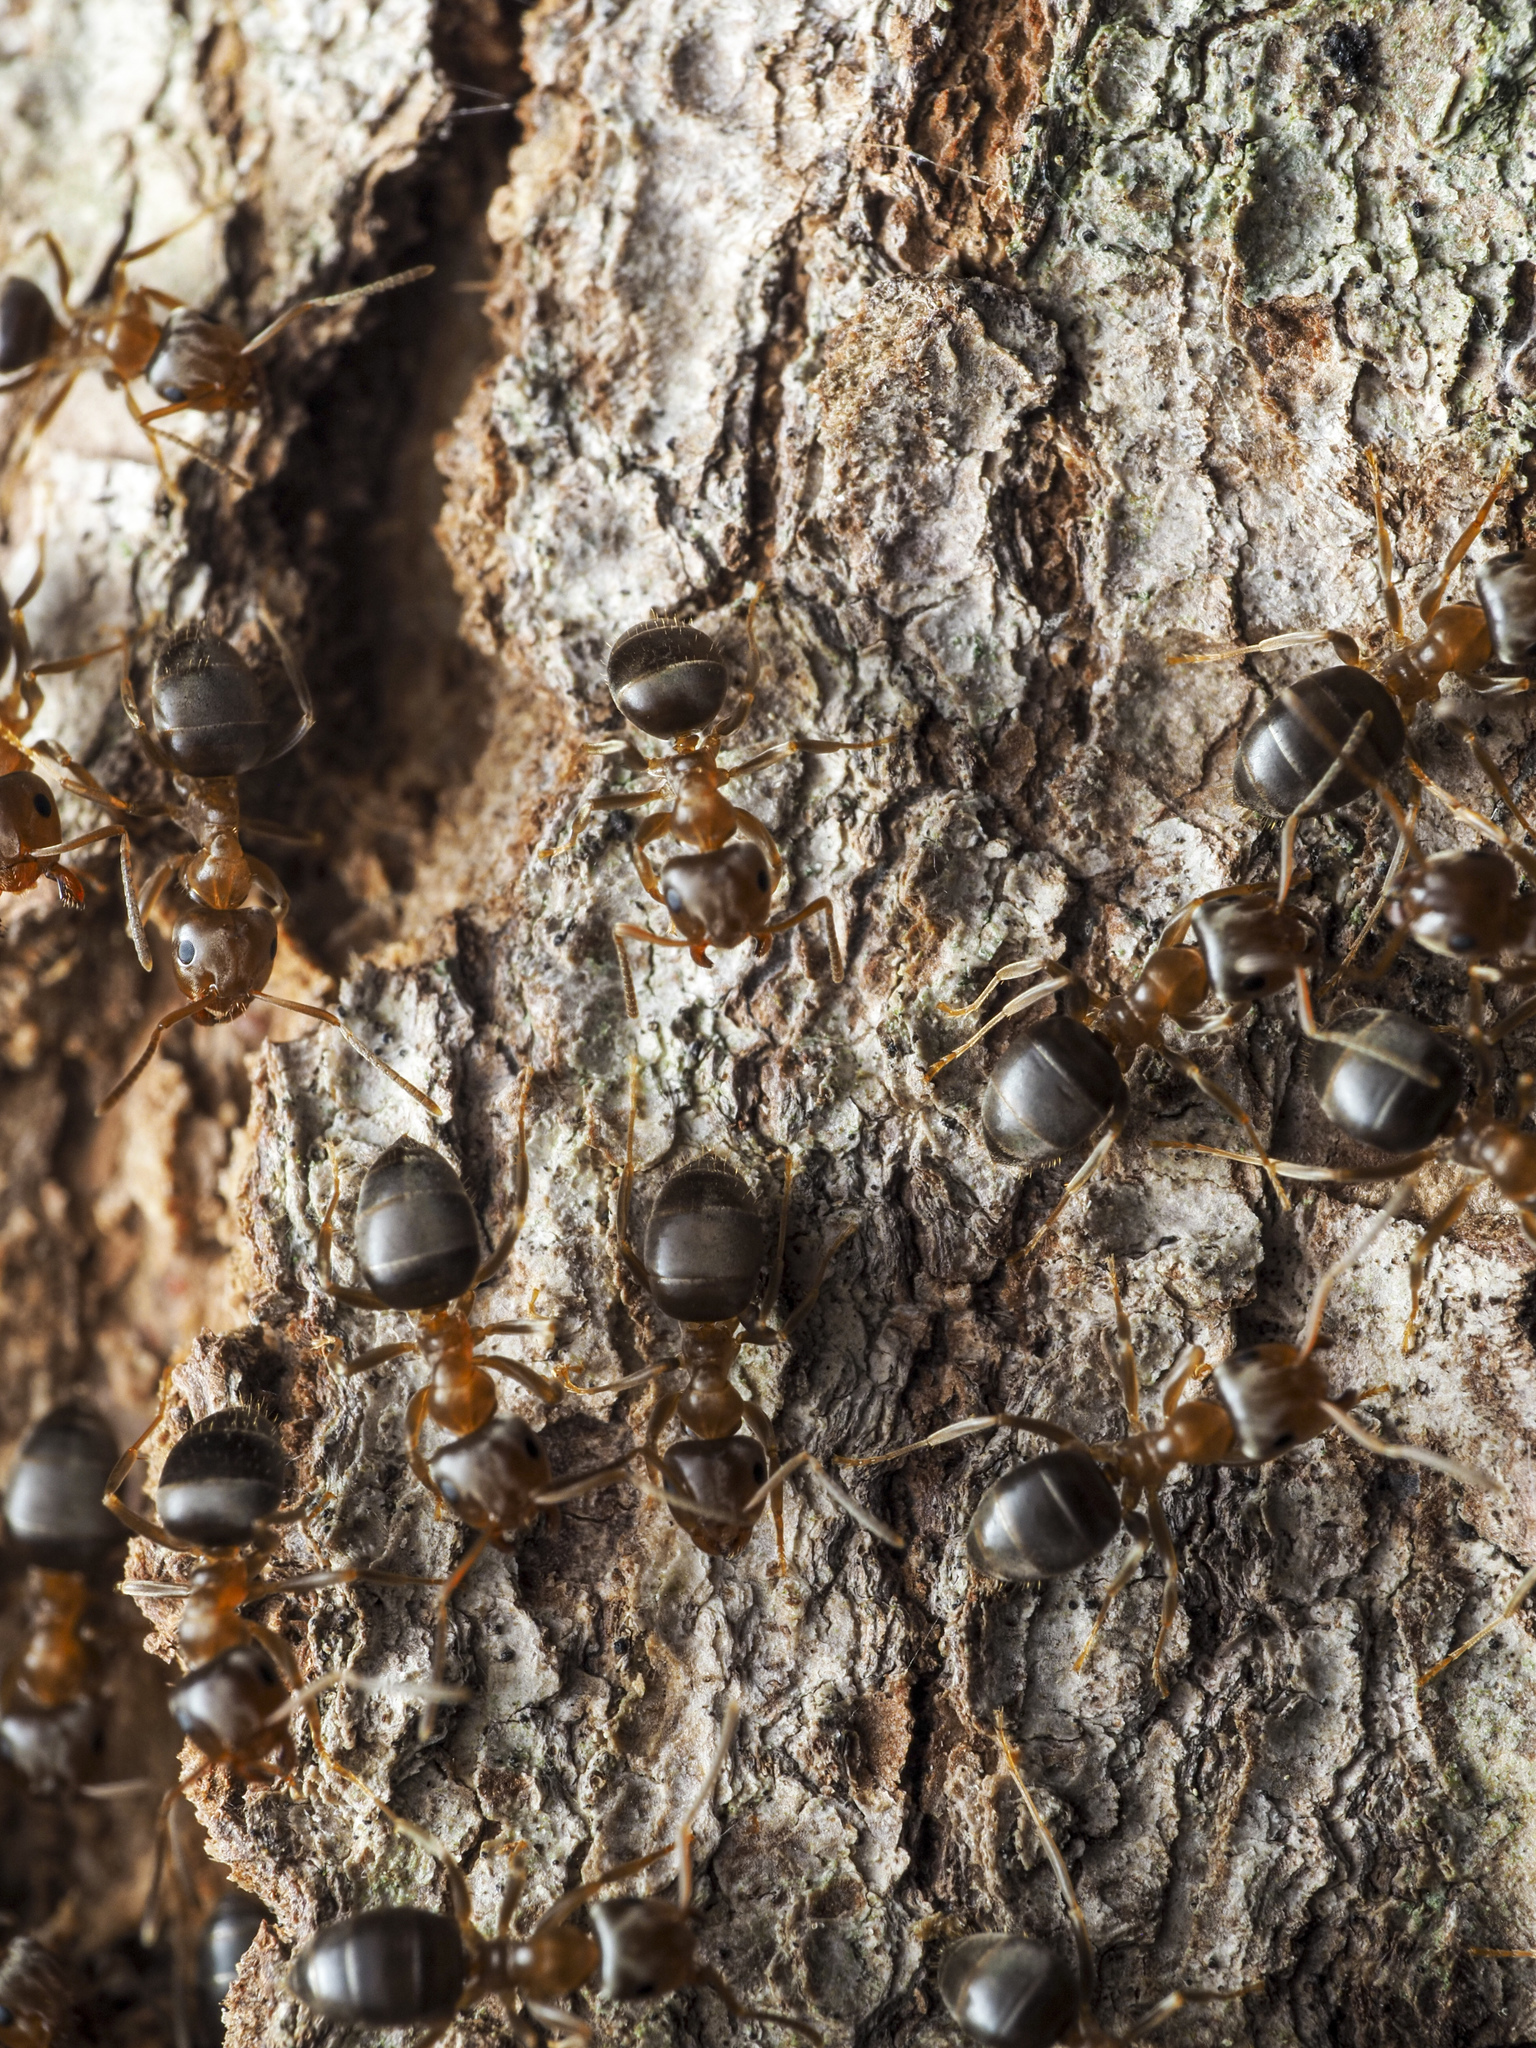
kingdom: Animalia
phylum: Arthropoda
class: Insecta
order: Hymenoptera
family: Formicidae
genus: Lasius
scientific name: Lasius brunneus
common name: Brown ant
